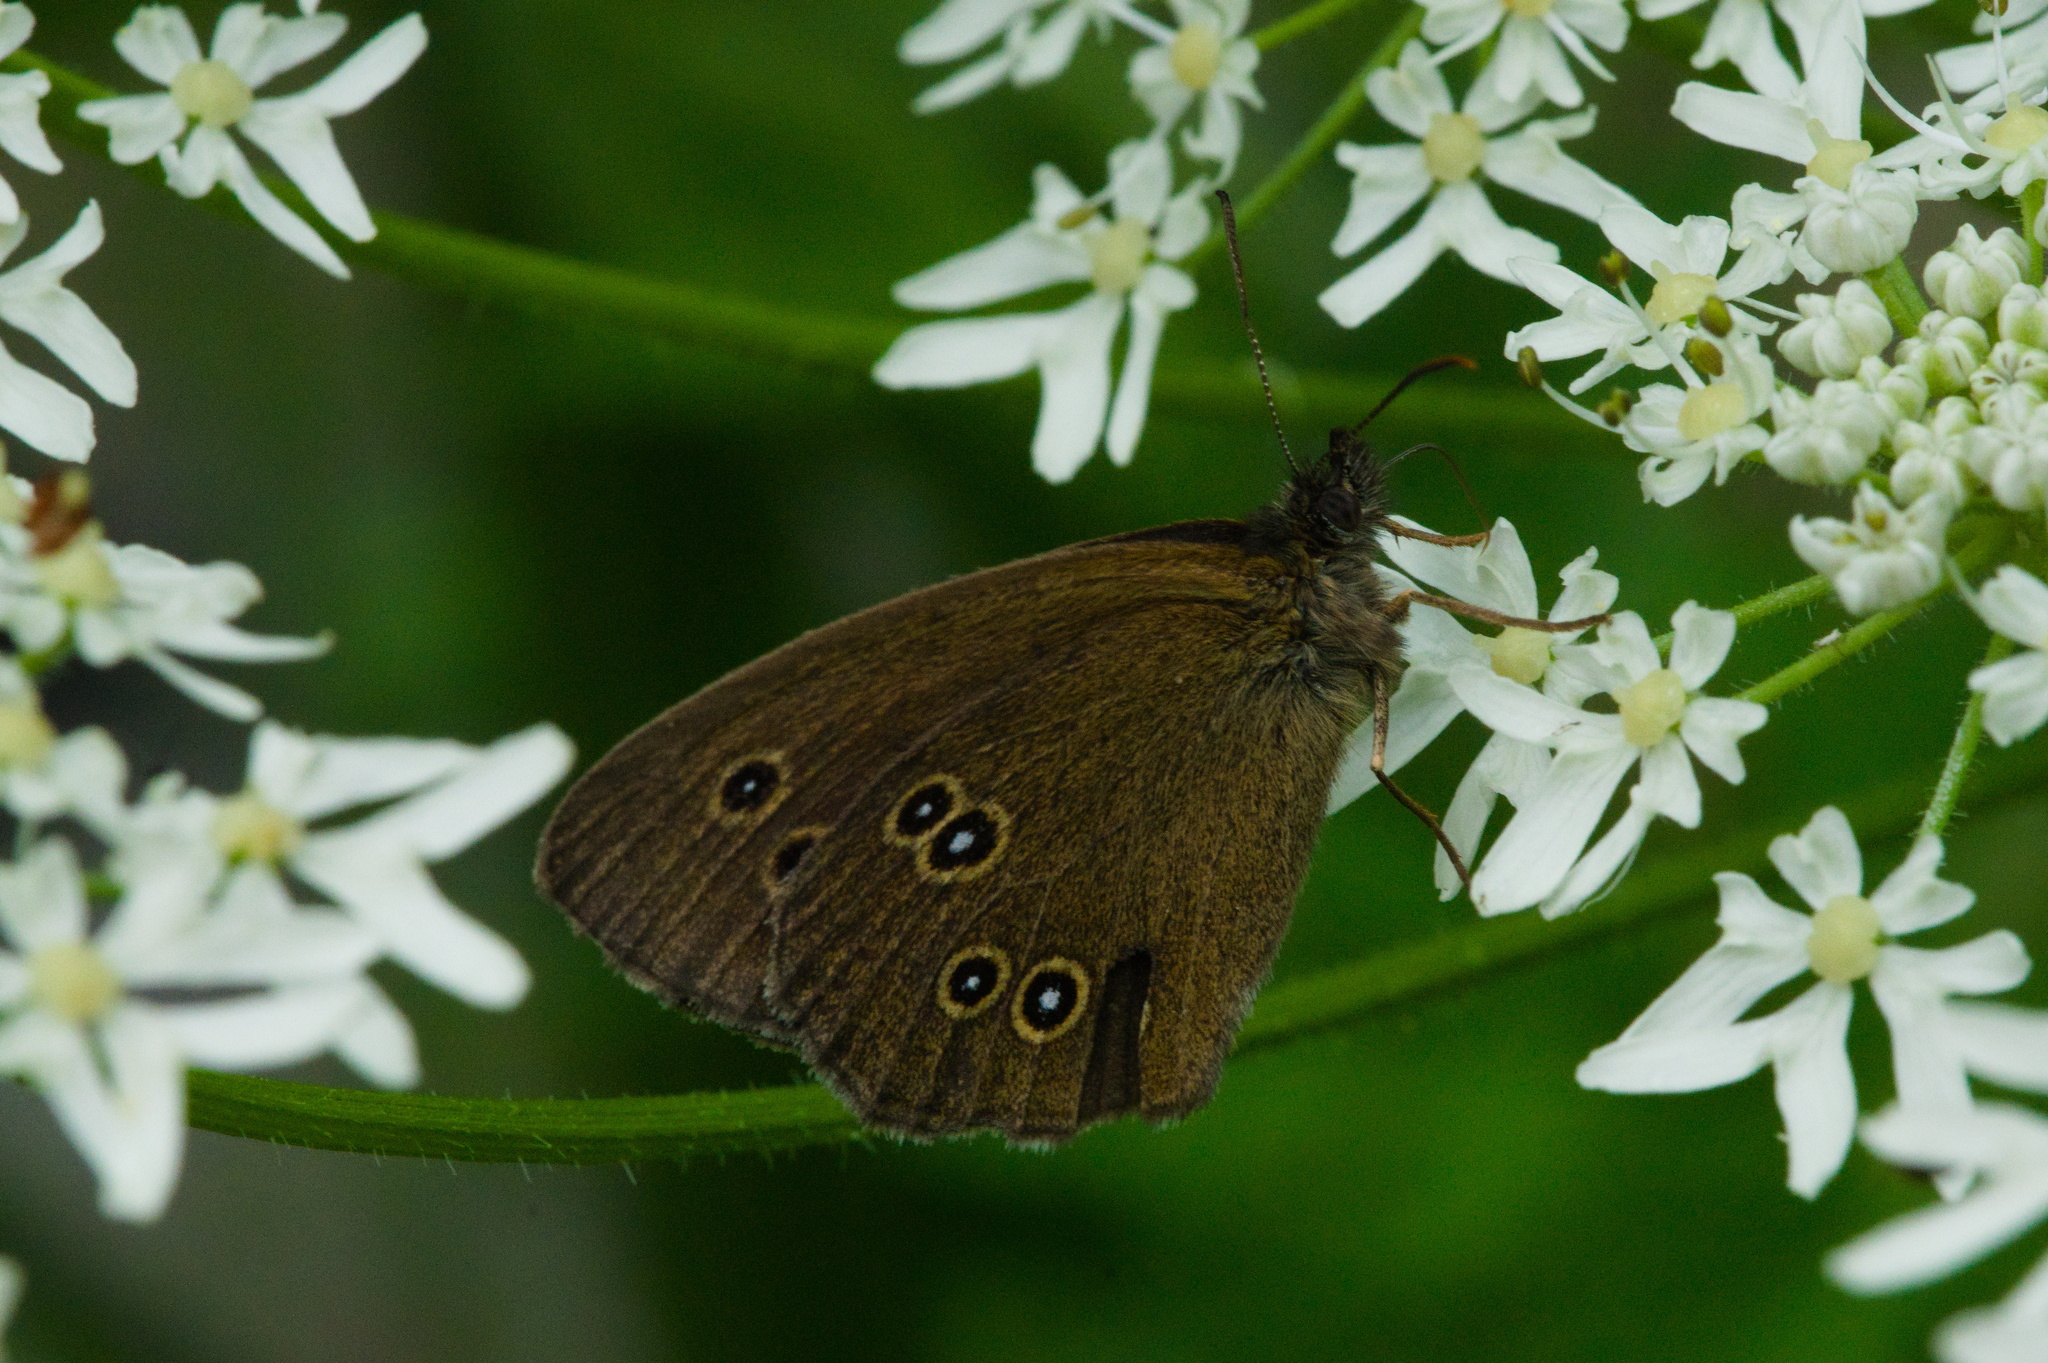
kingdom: Animalia
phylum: Arthropoda
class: Insecta
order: Lepidoptera
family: Nymphalidae
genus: Aphantopus
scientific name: Aphantopus hyperantus
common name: Ringlet
